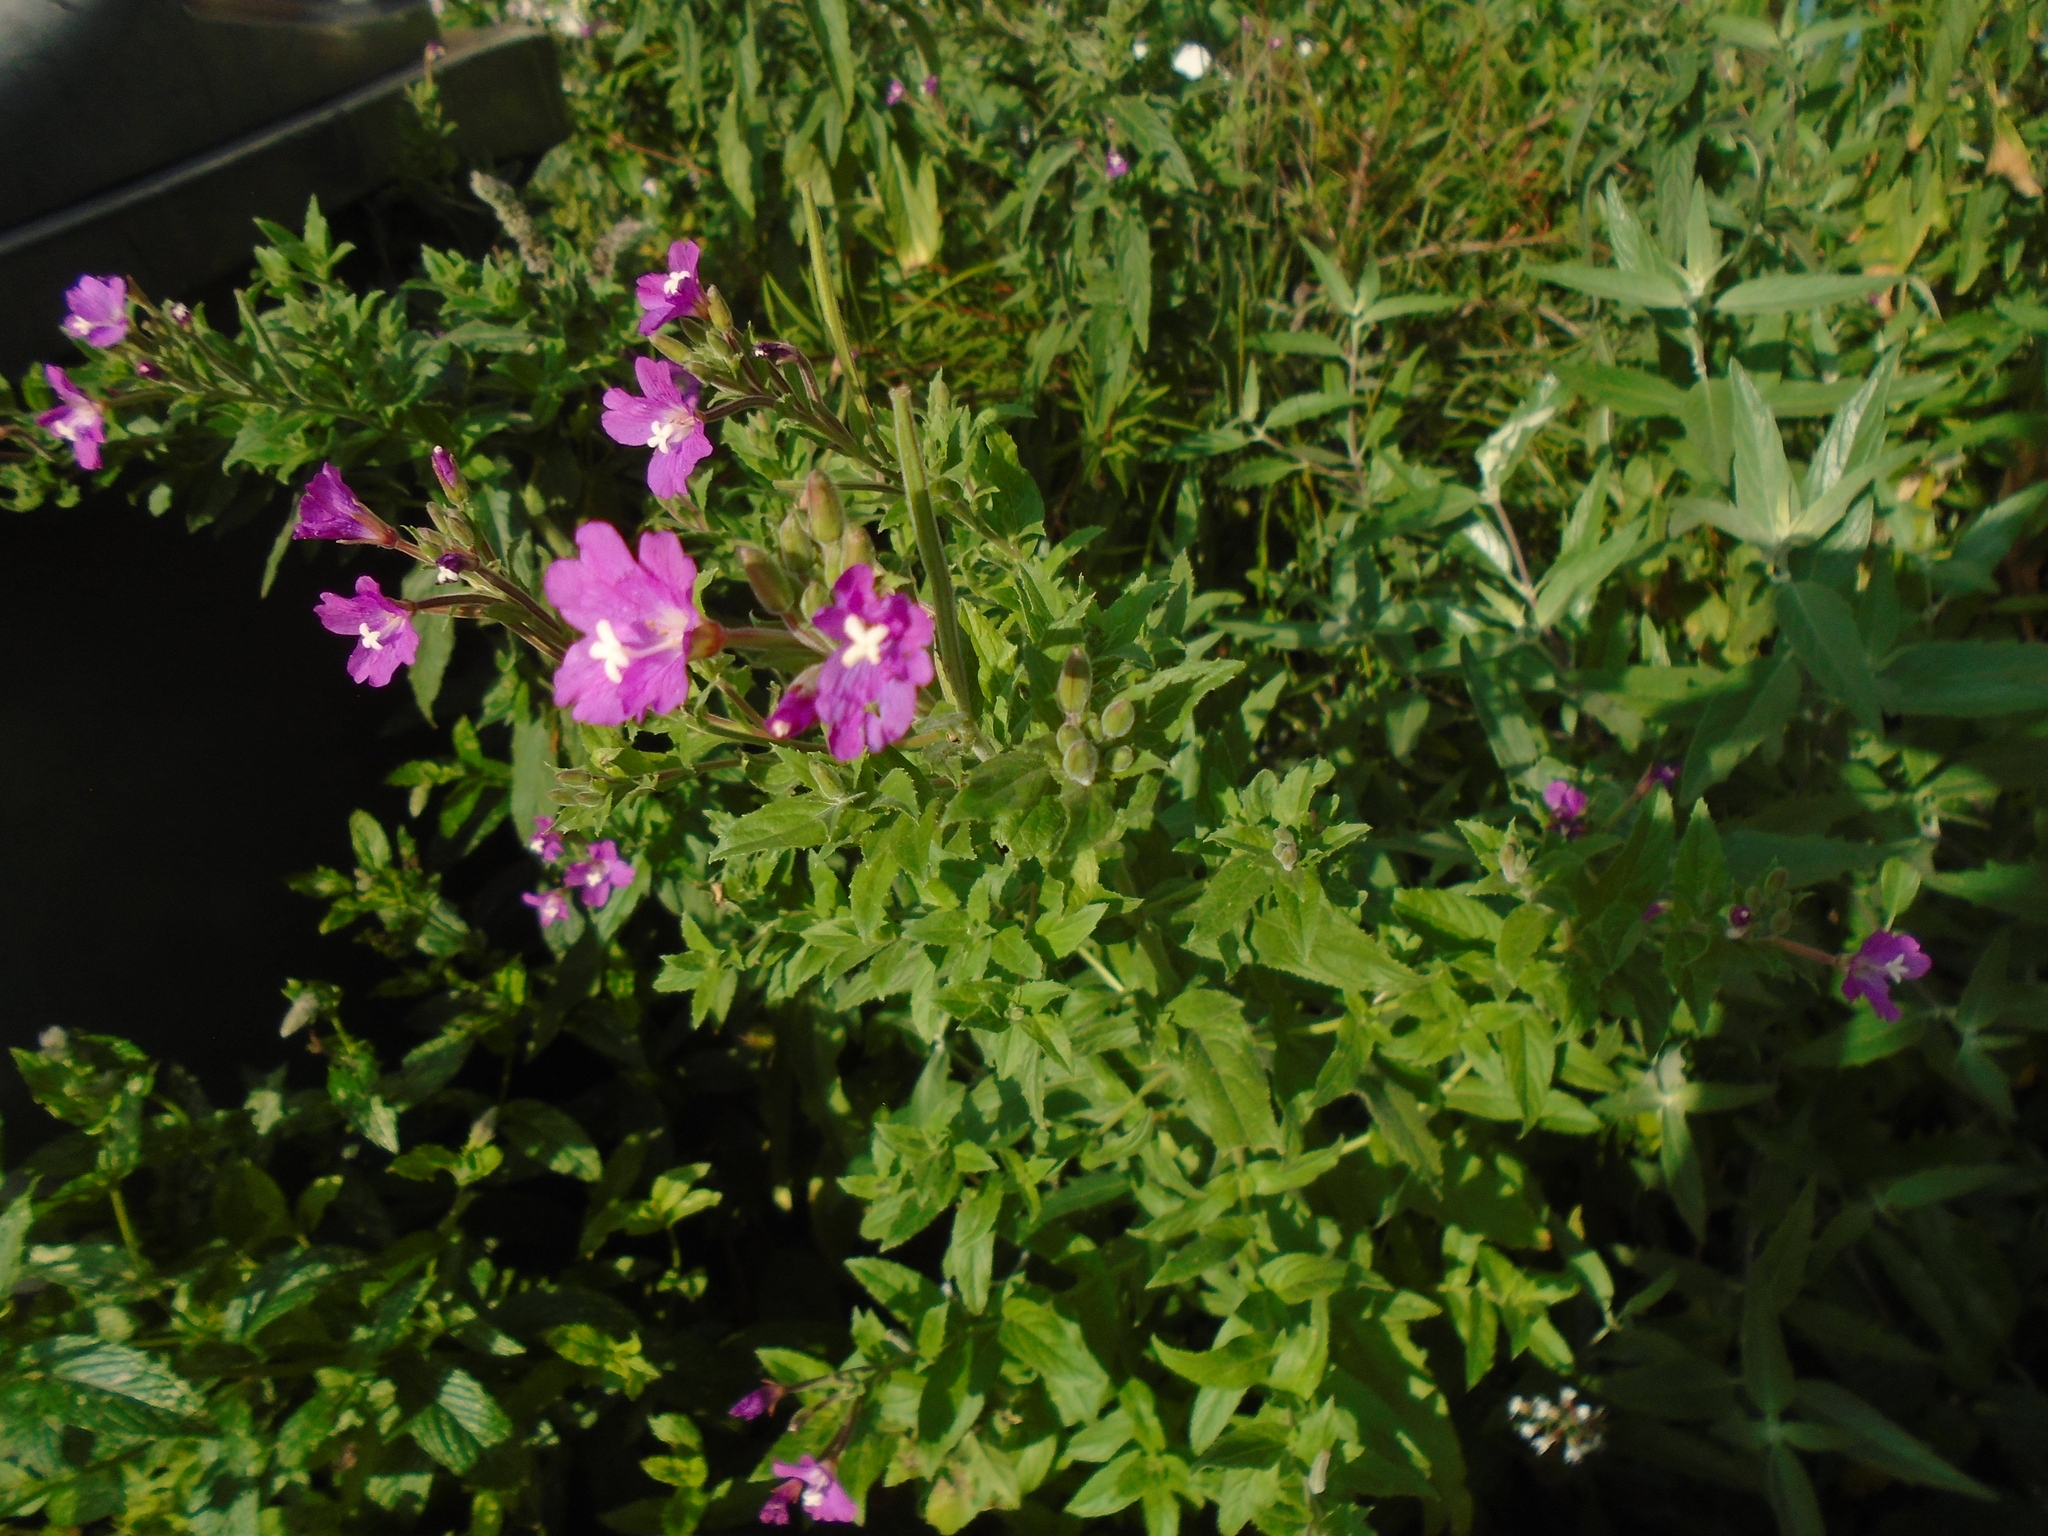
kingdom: Plantae
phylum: Tracheophyta
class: Magnoliopsida
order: Myrtales
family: Onagraceae
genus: Epilobium
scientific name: Epilobium hirsutum
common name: Great willowherb
